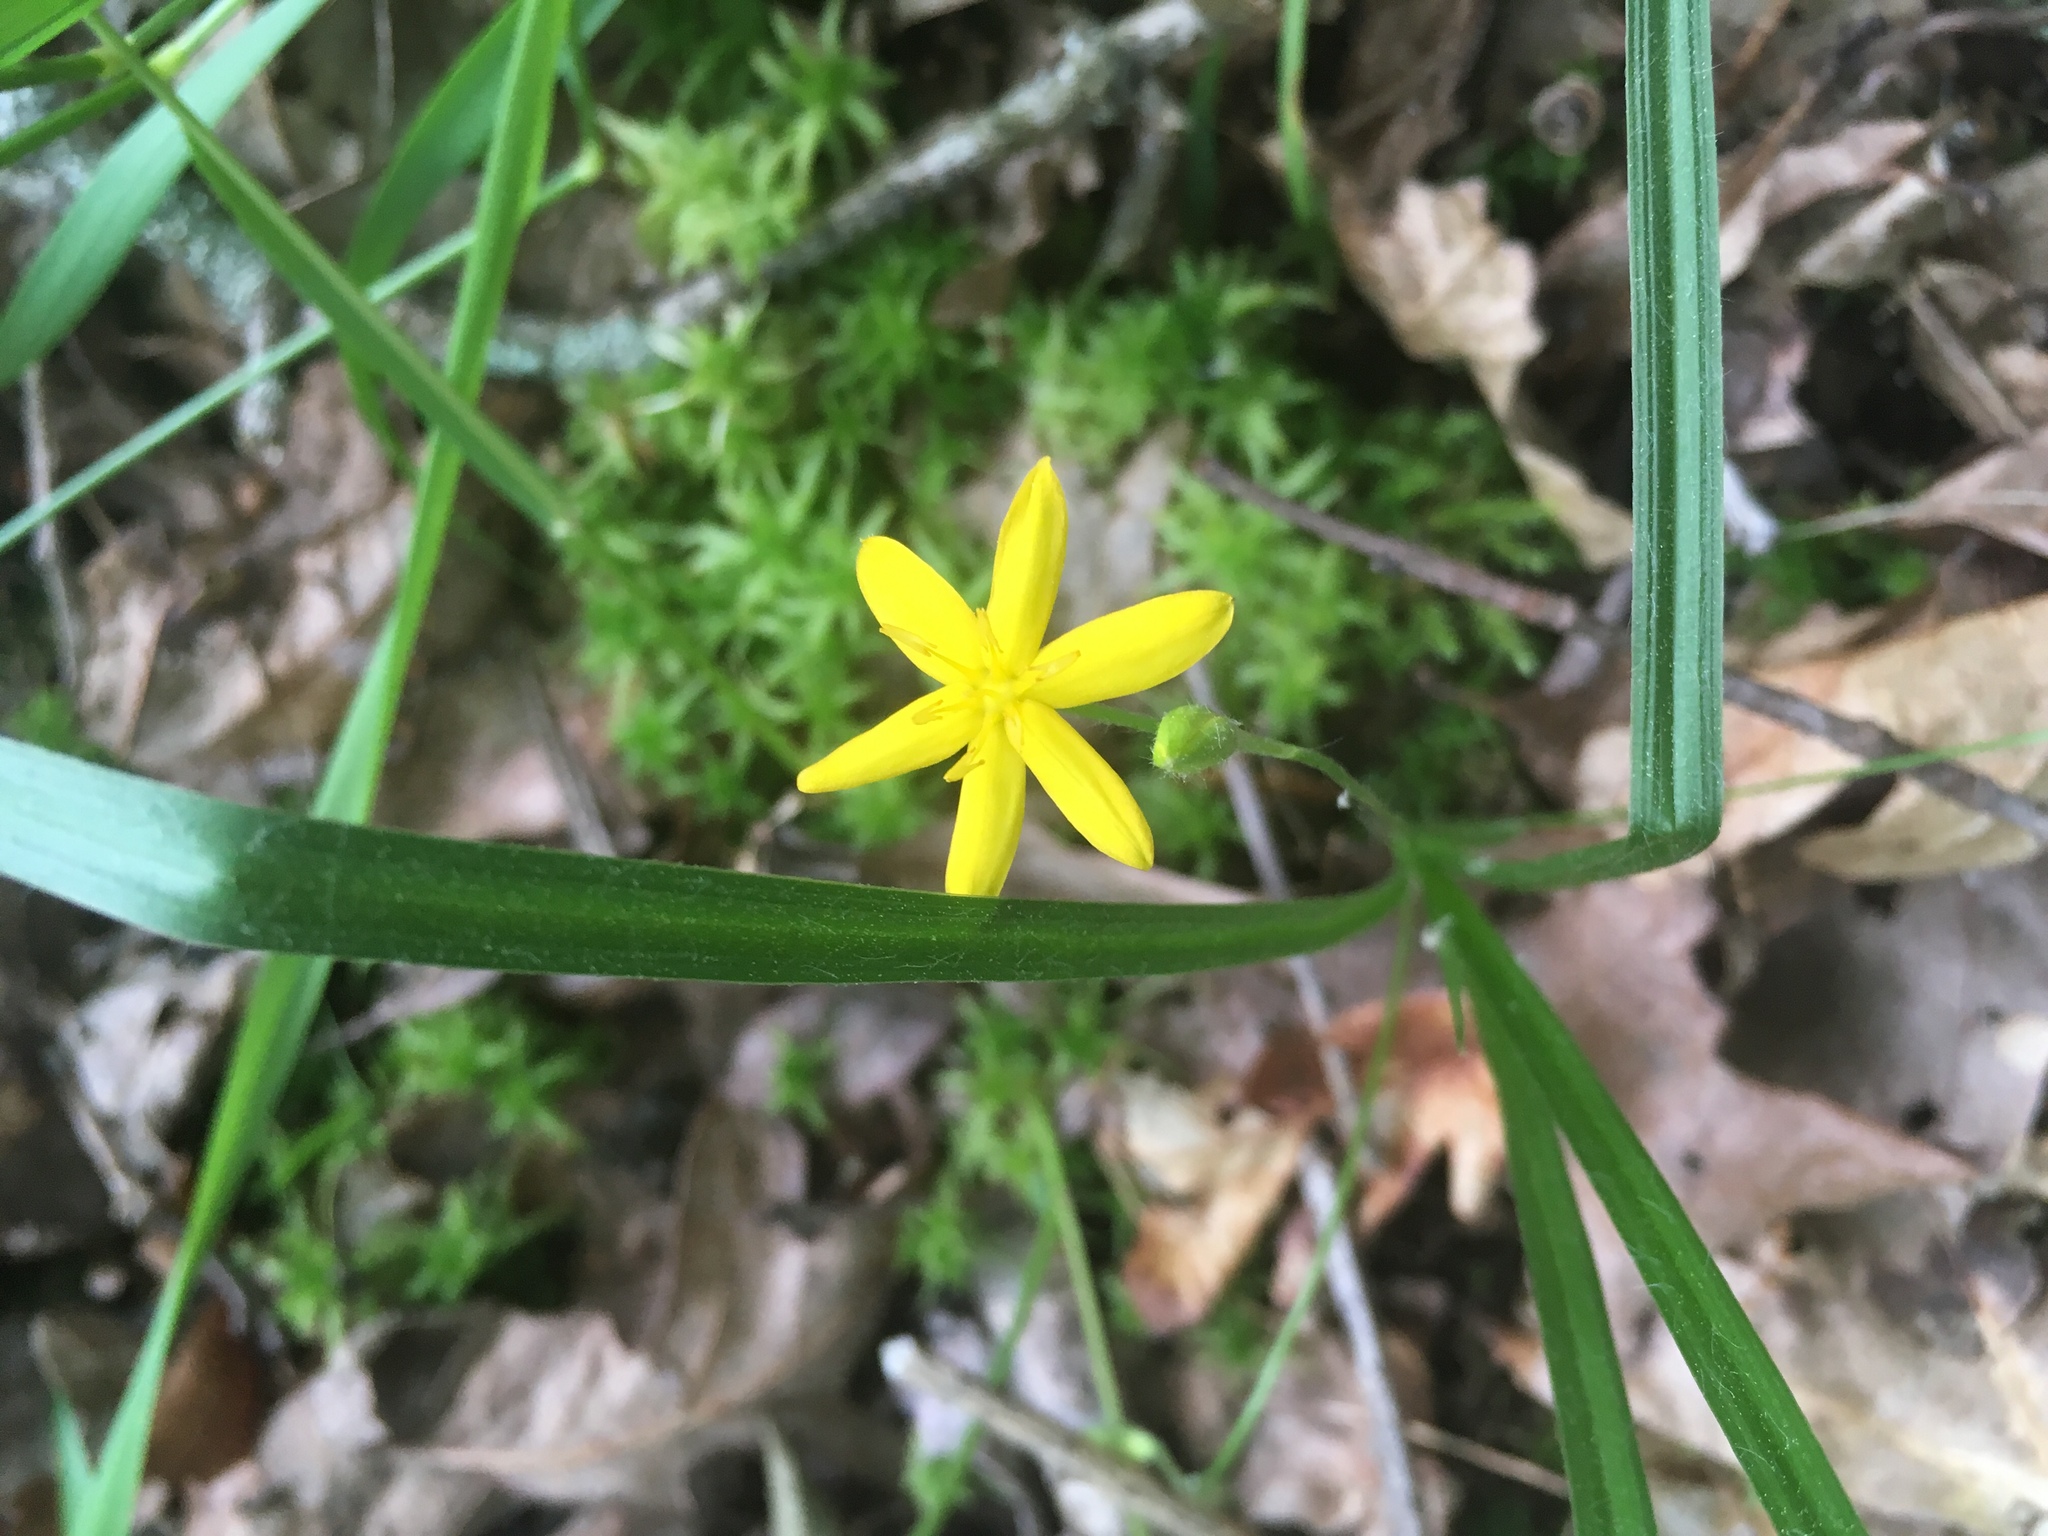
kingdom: Plantae
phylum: Tracheophyta
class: Liliopsida
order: Asparagales
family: Hypoxidaceae
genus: Hypoxis
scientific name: Hypoxis hirsuta
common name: Common goldstar
